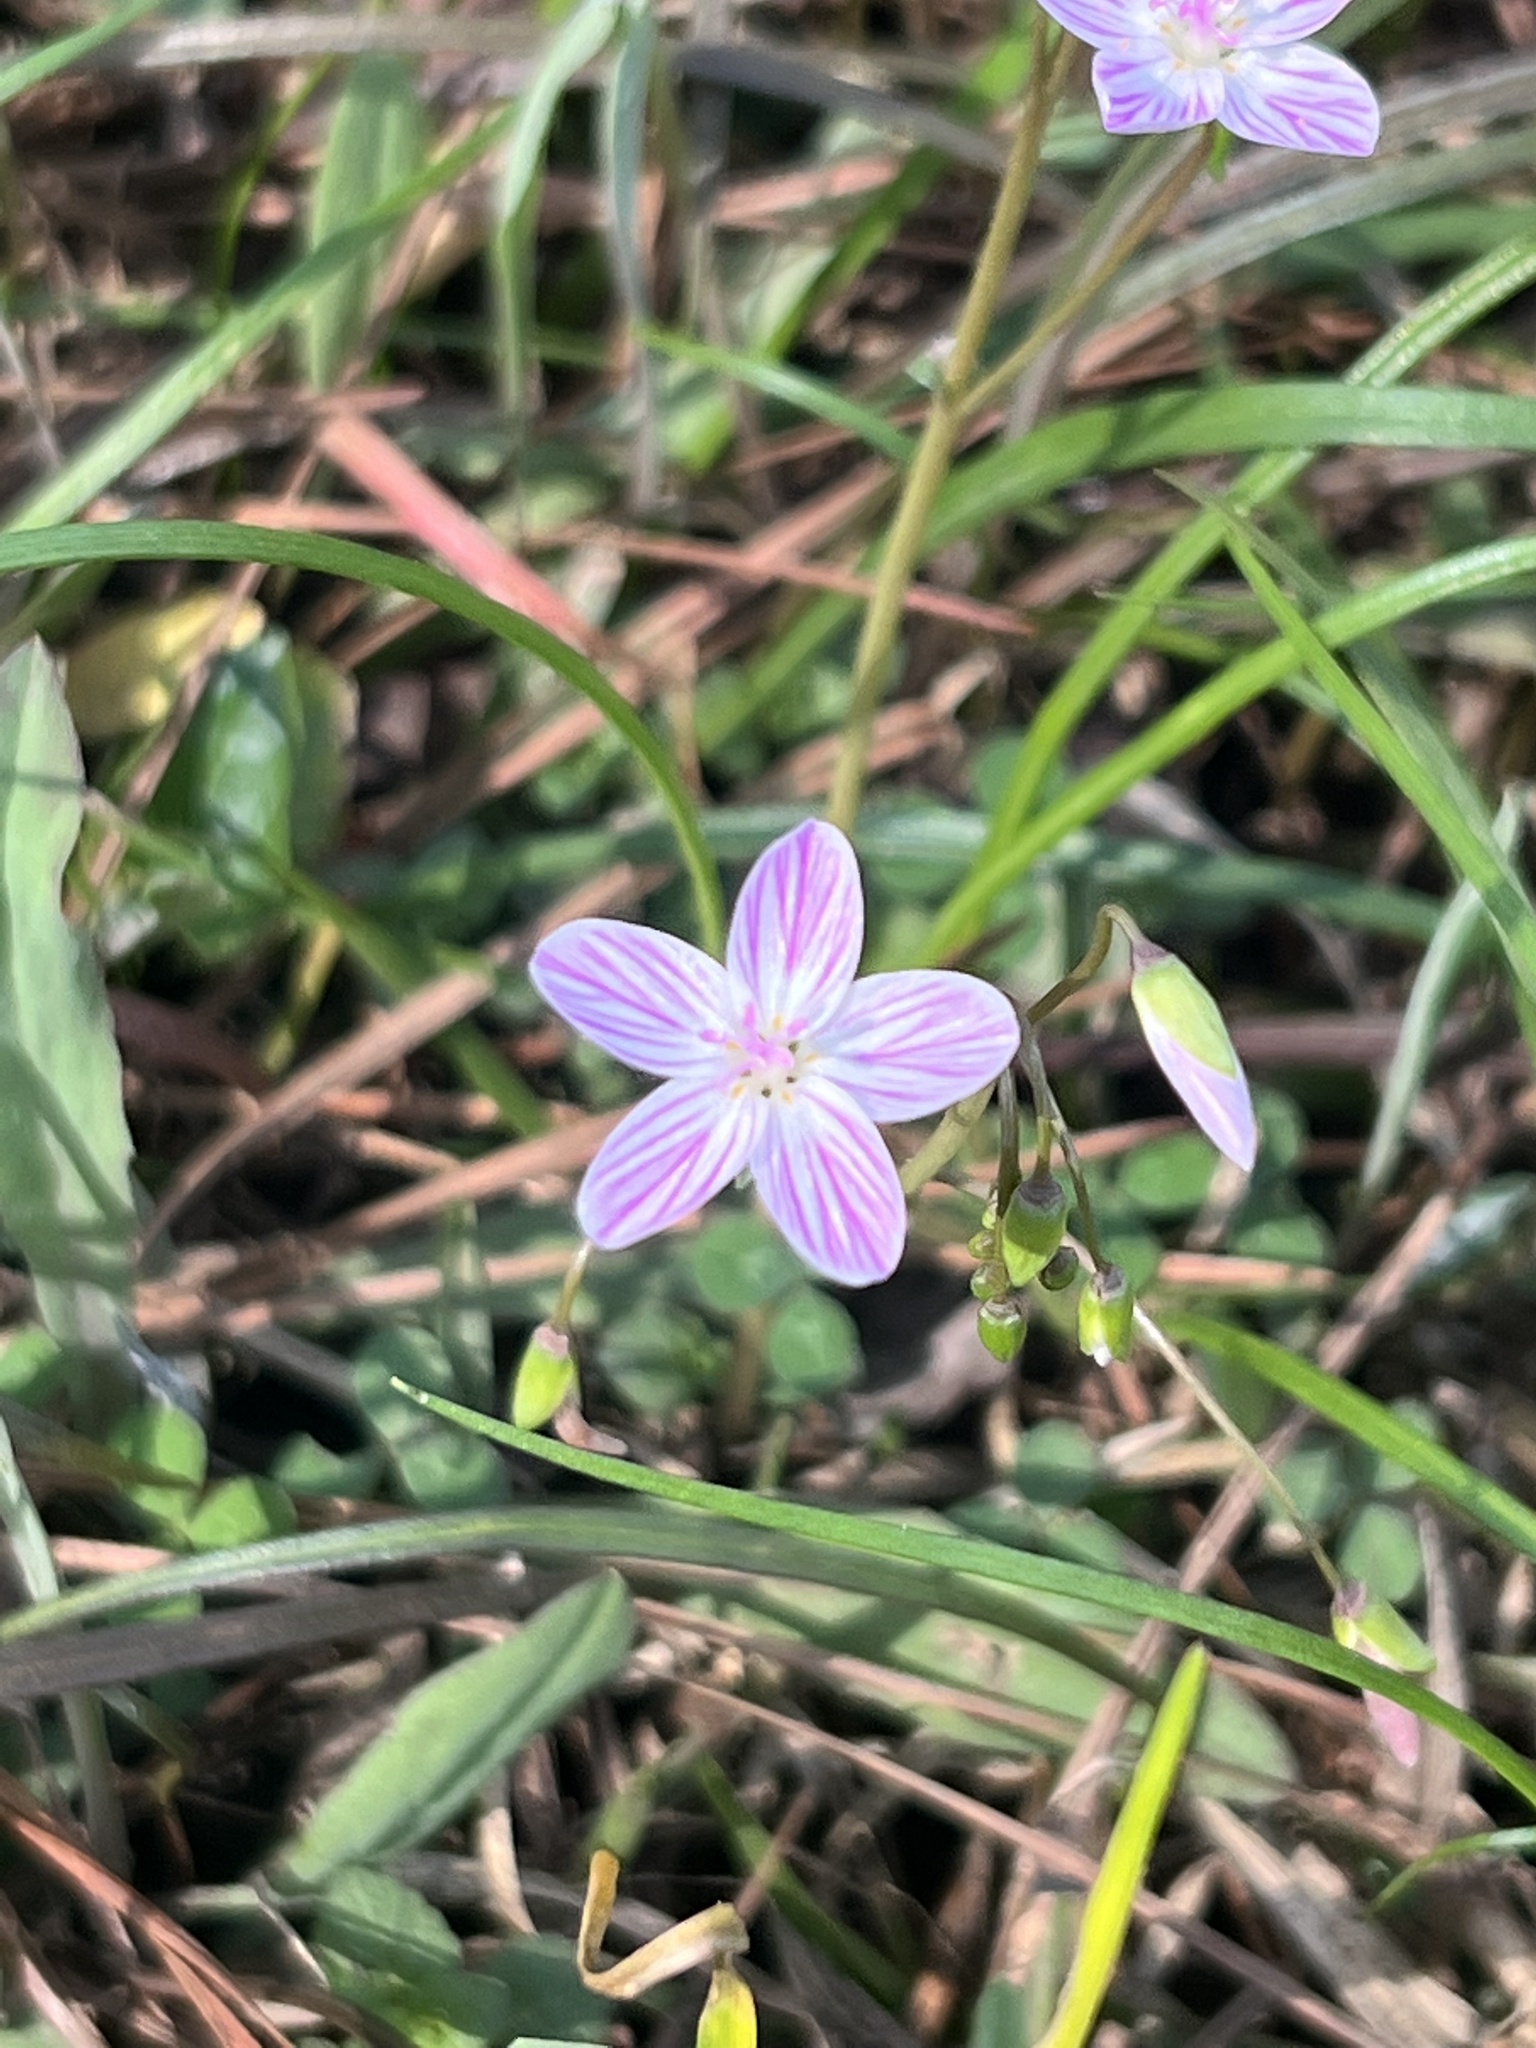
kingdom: Plantae
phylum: Tracheophyta
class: Magnoliopsida
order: Caryophyllales
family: Montiaceae
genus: Claytonia
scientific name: Claytonia virginica
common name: Virginia springbeauty
